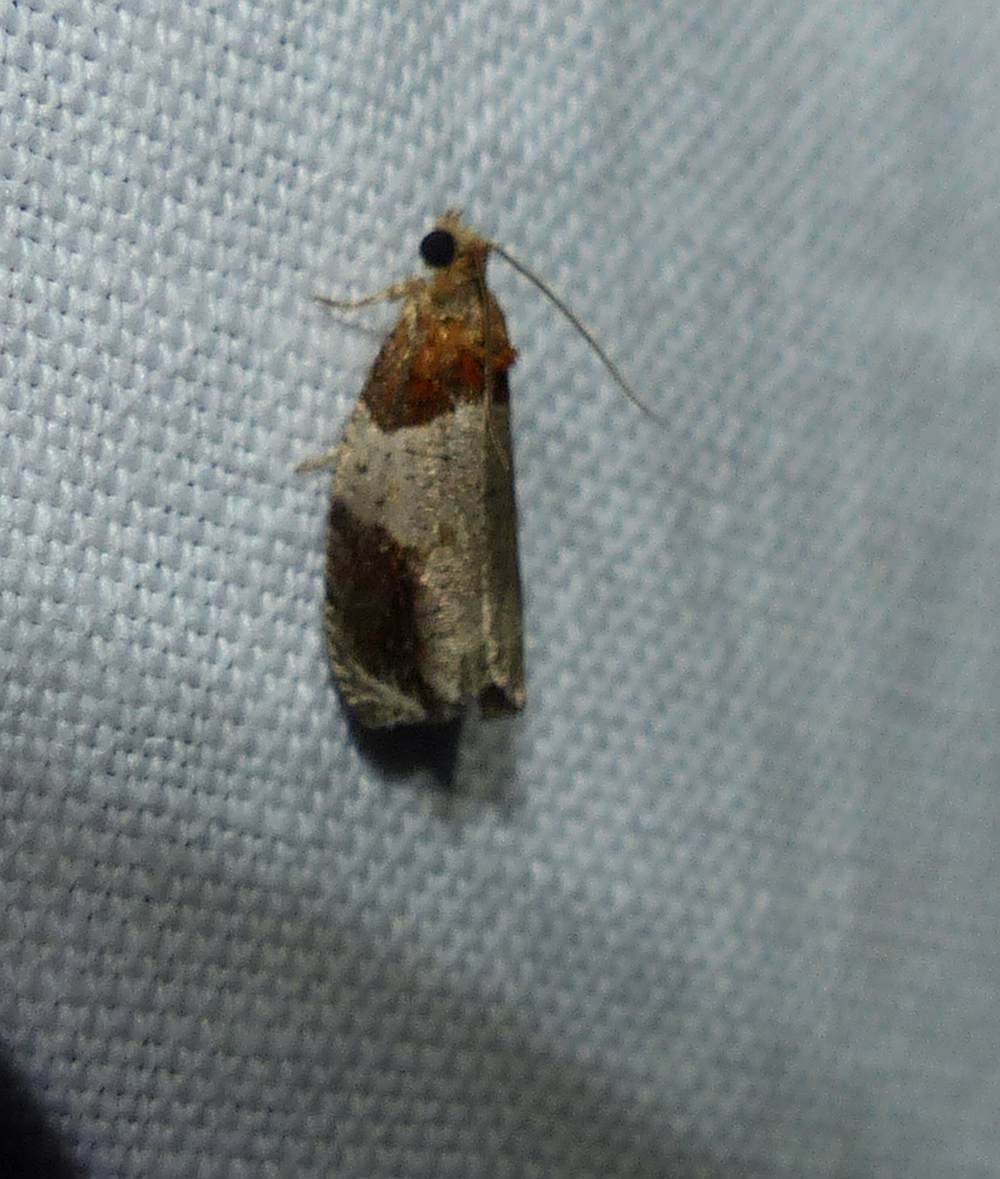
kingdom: Animalia
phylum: Arthropoda
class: Insecta
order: Lepidoptera
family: Tortricidae
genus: Olethreutes
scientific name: Olethreutes ferriferana
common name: Hydrangea leaftier moth
